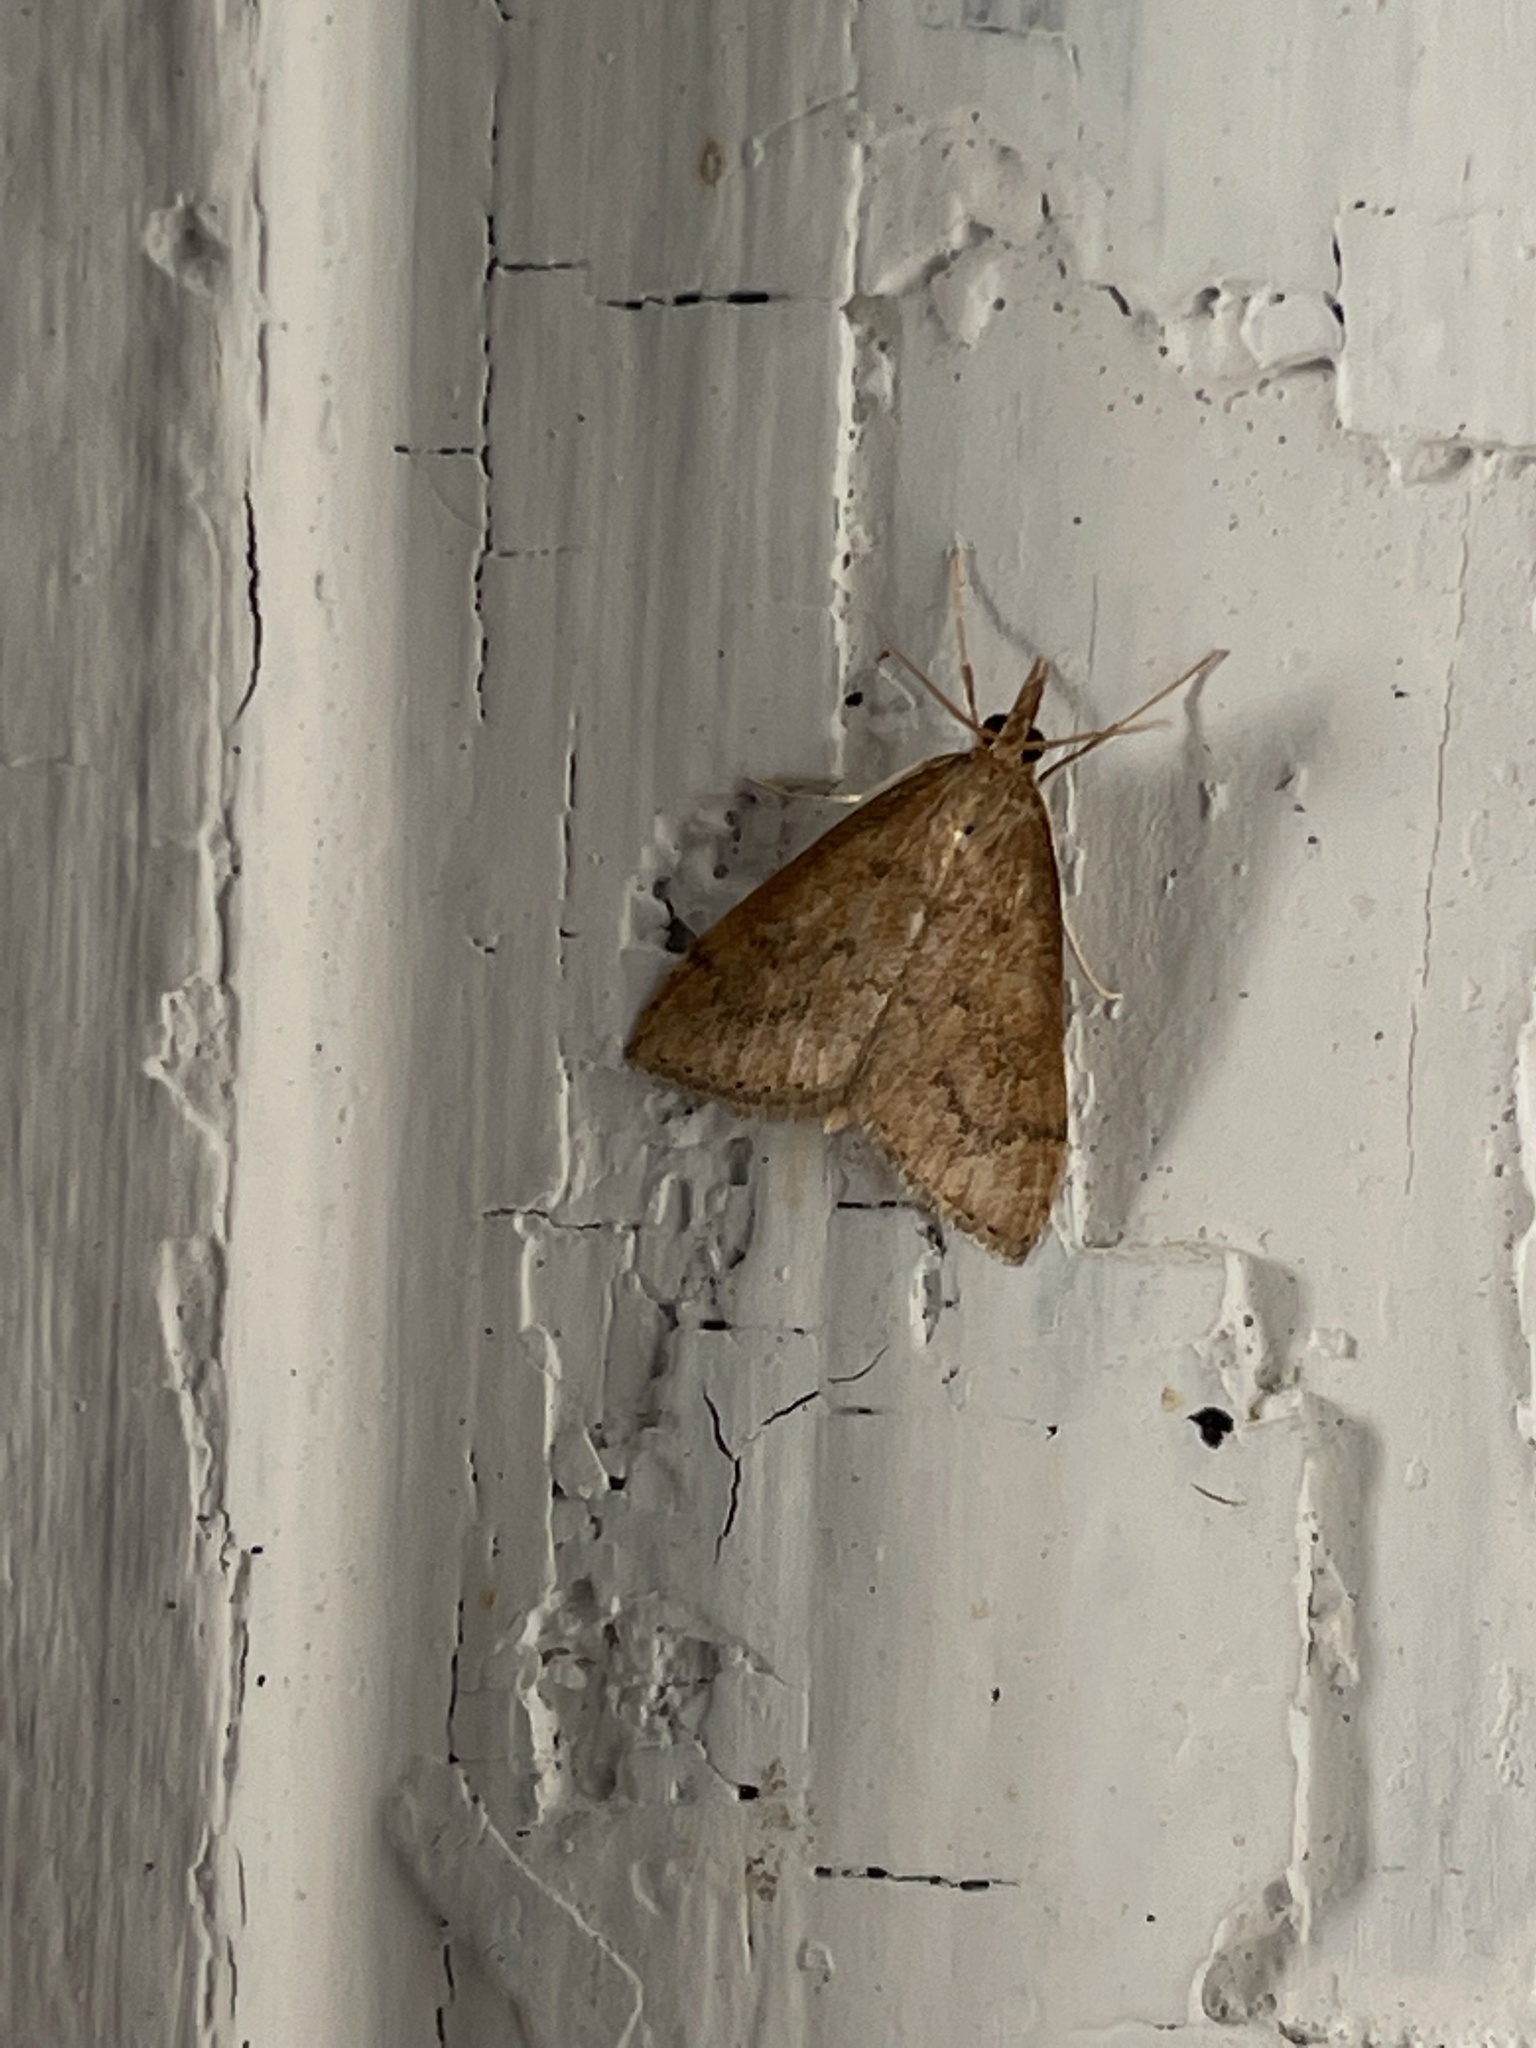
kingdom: Animalia
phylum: Arthropoda
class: Insecta
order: Lepidoptera
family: Crambidae
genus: Udea
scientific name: Udea rubigalis
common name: Celery leaftier moth
